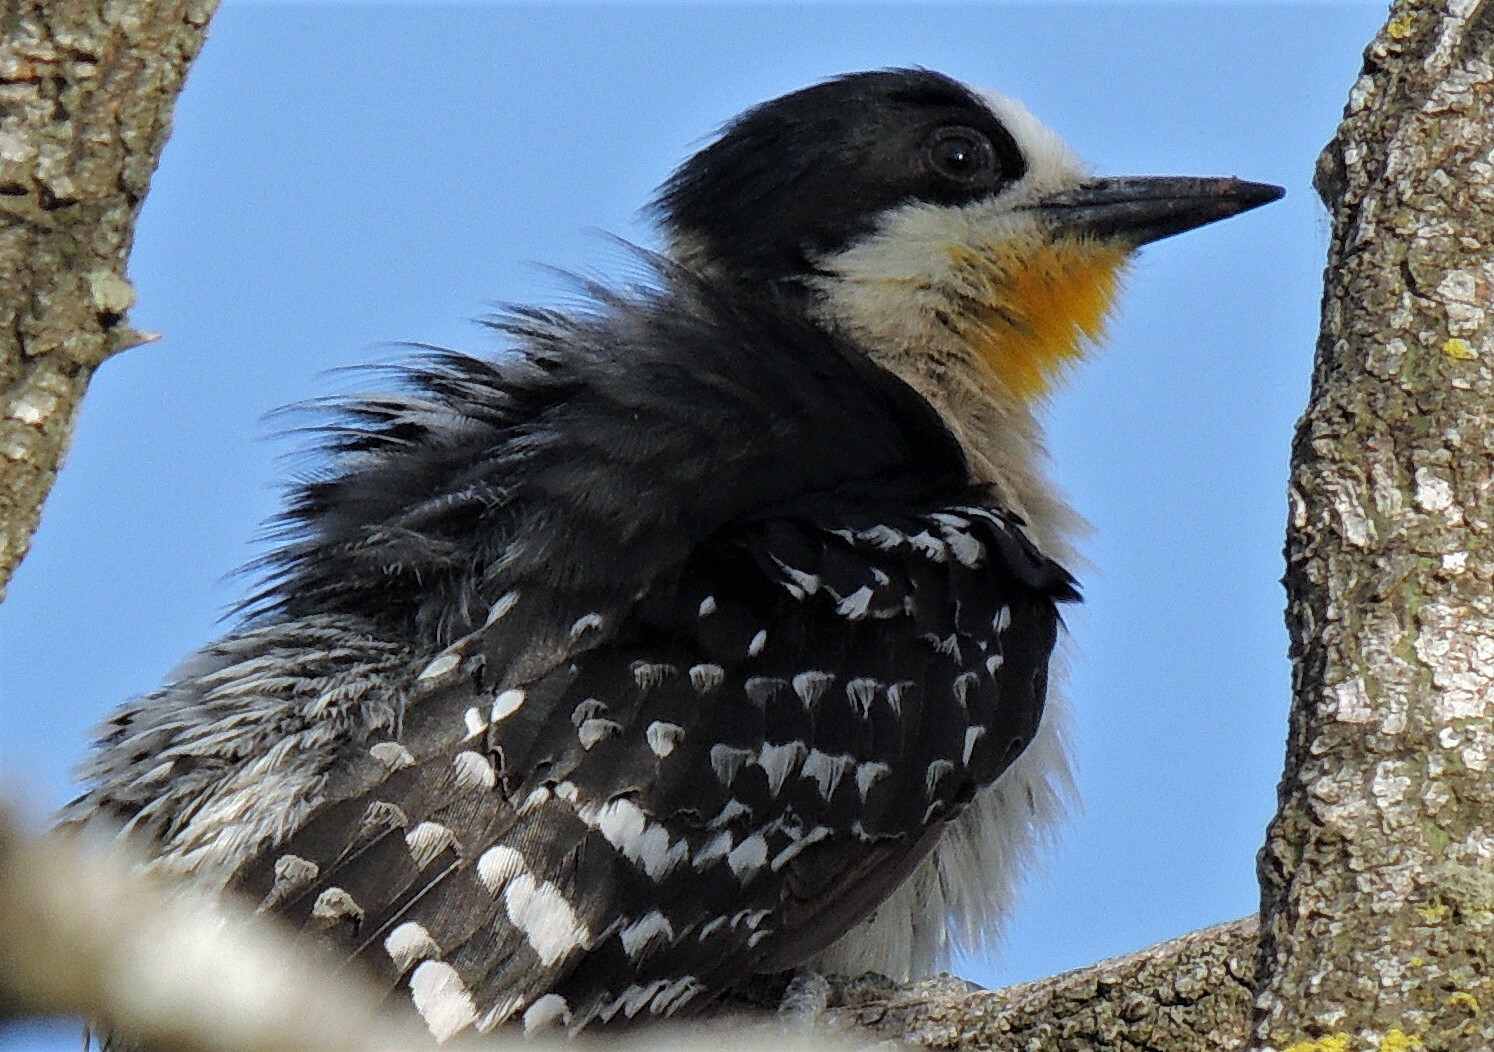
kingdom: Animalia
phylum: Chordata
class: Aves
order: Piciformes
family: Picidae
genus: Melanerpes
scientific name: Melanerpes cactorum
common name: White-fronted woodpecker
